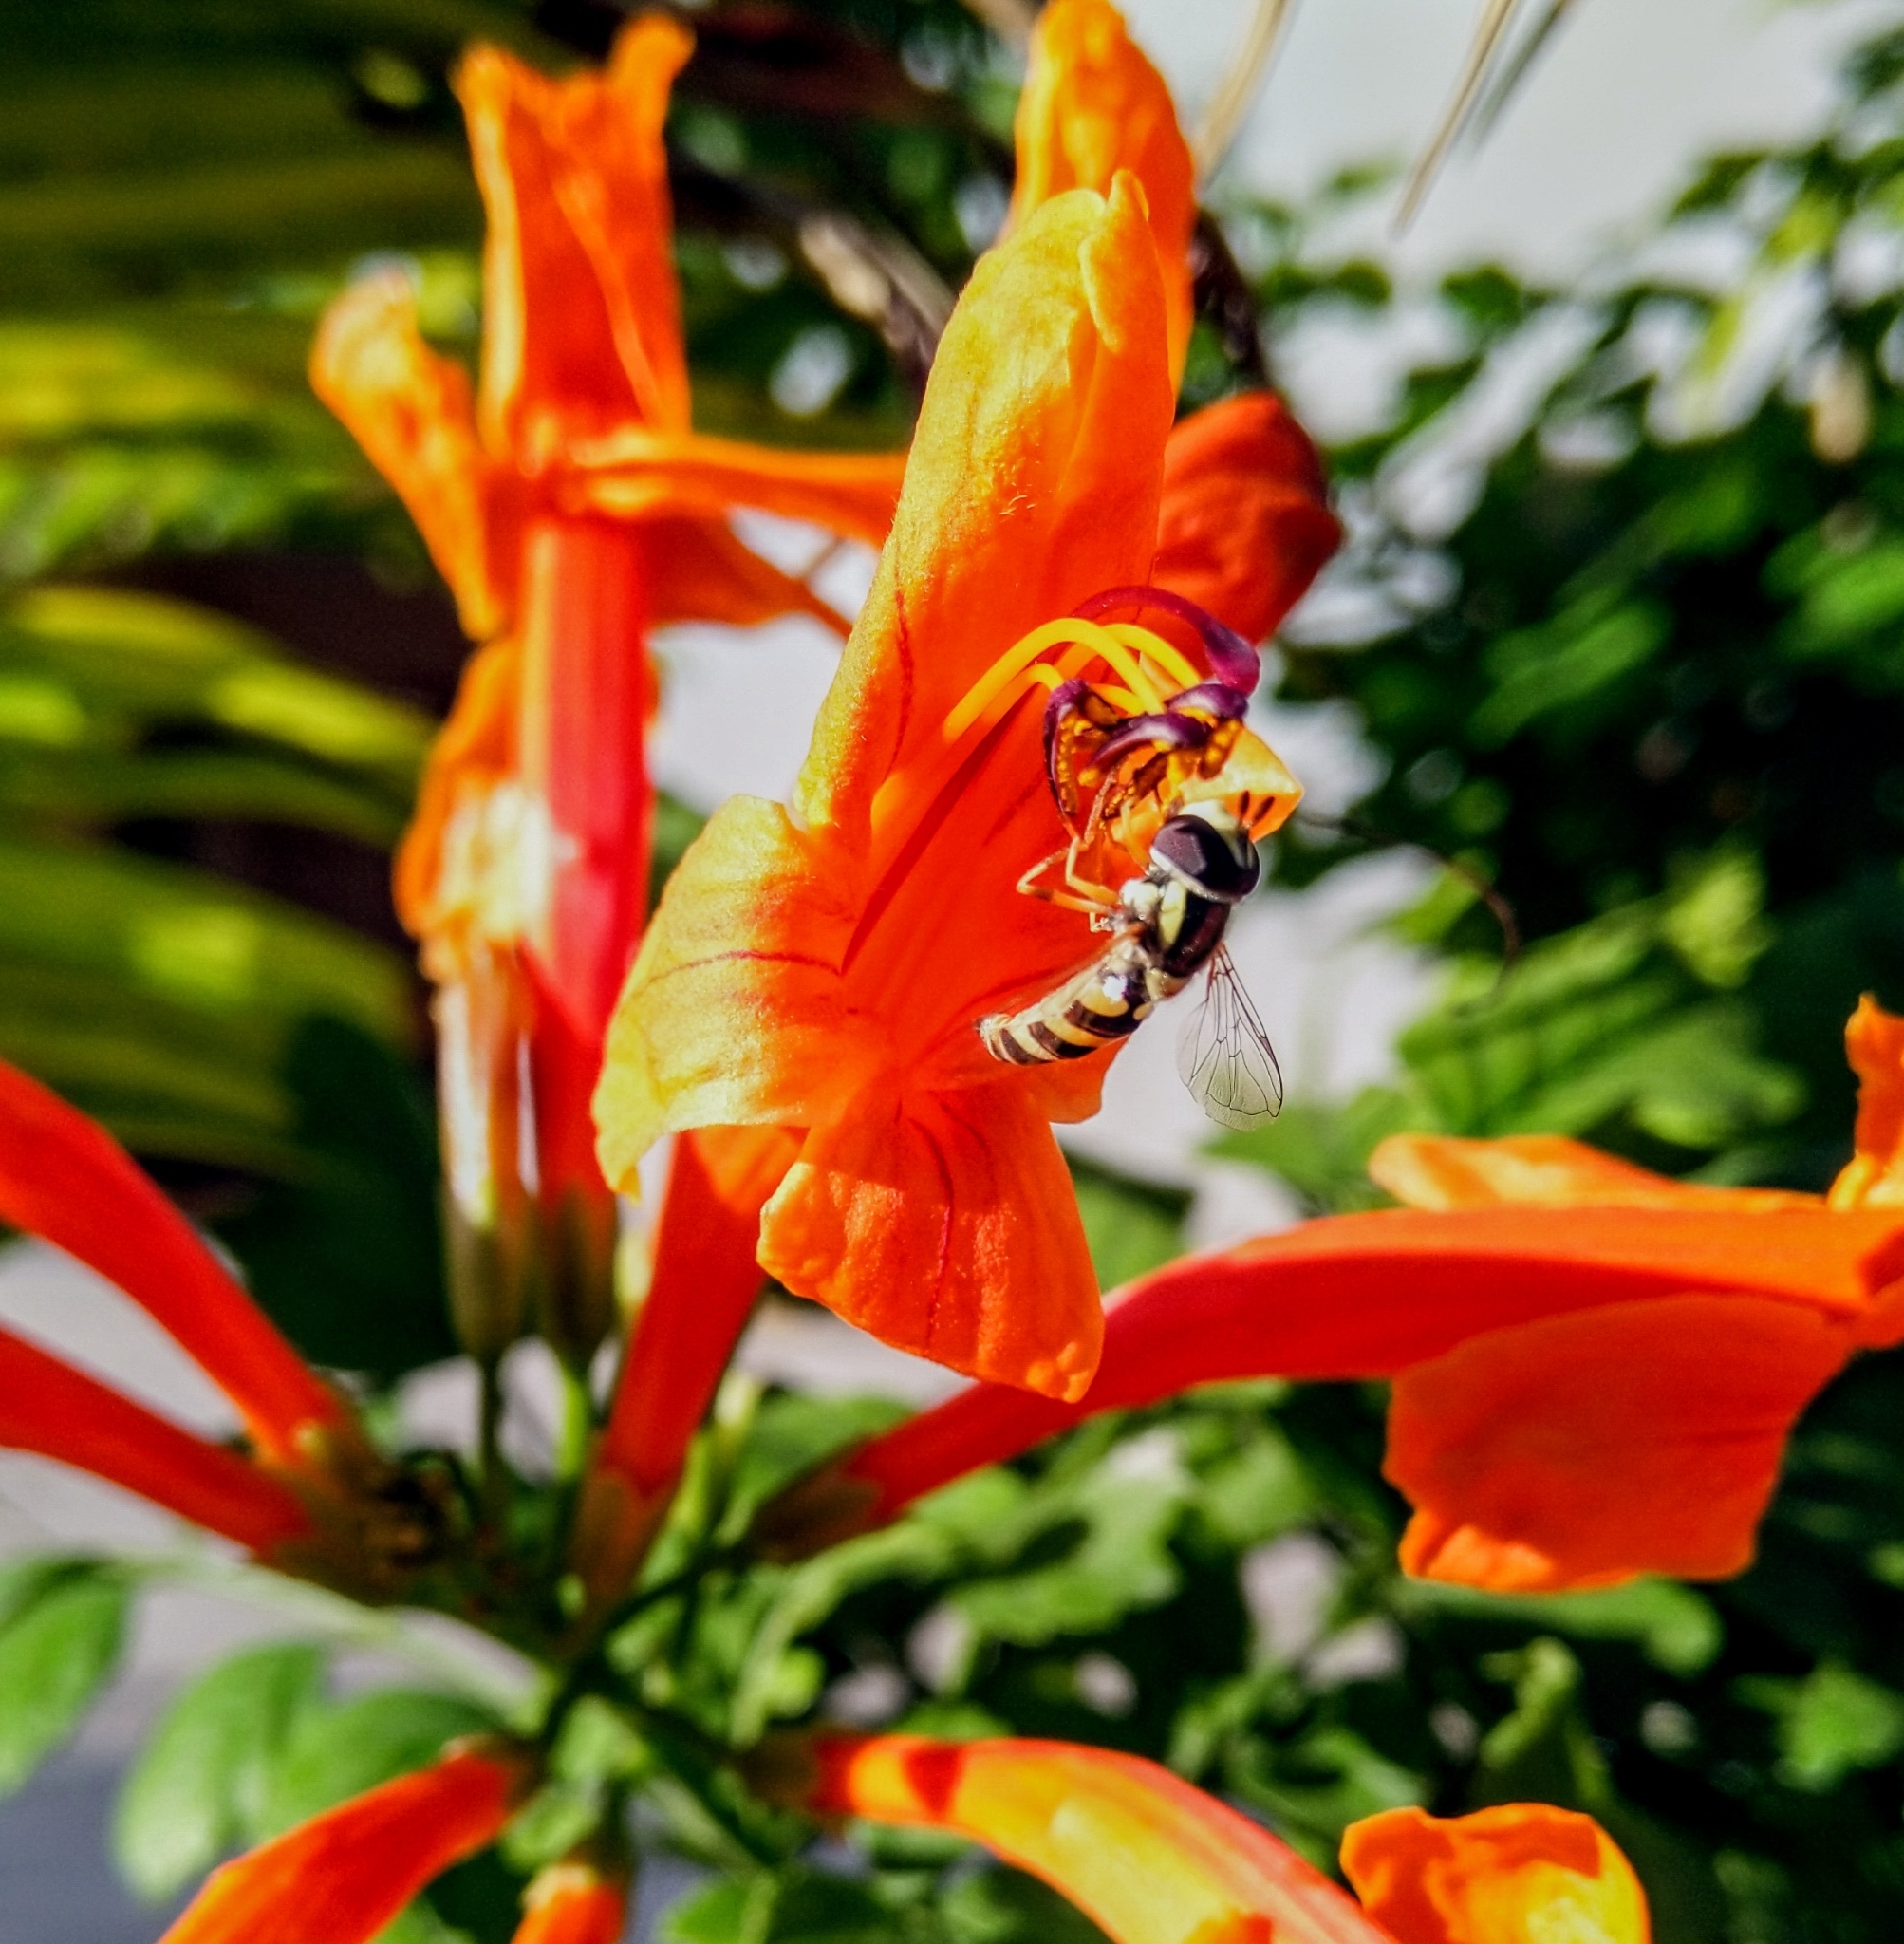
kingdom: Animalia
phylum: Arthropoda
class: Insecta
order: Diptera
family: Syrphidae
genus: Ischiodon
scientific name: Ischiodon scutellaris
